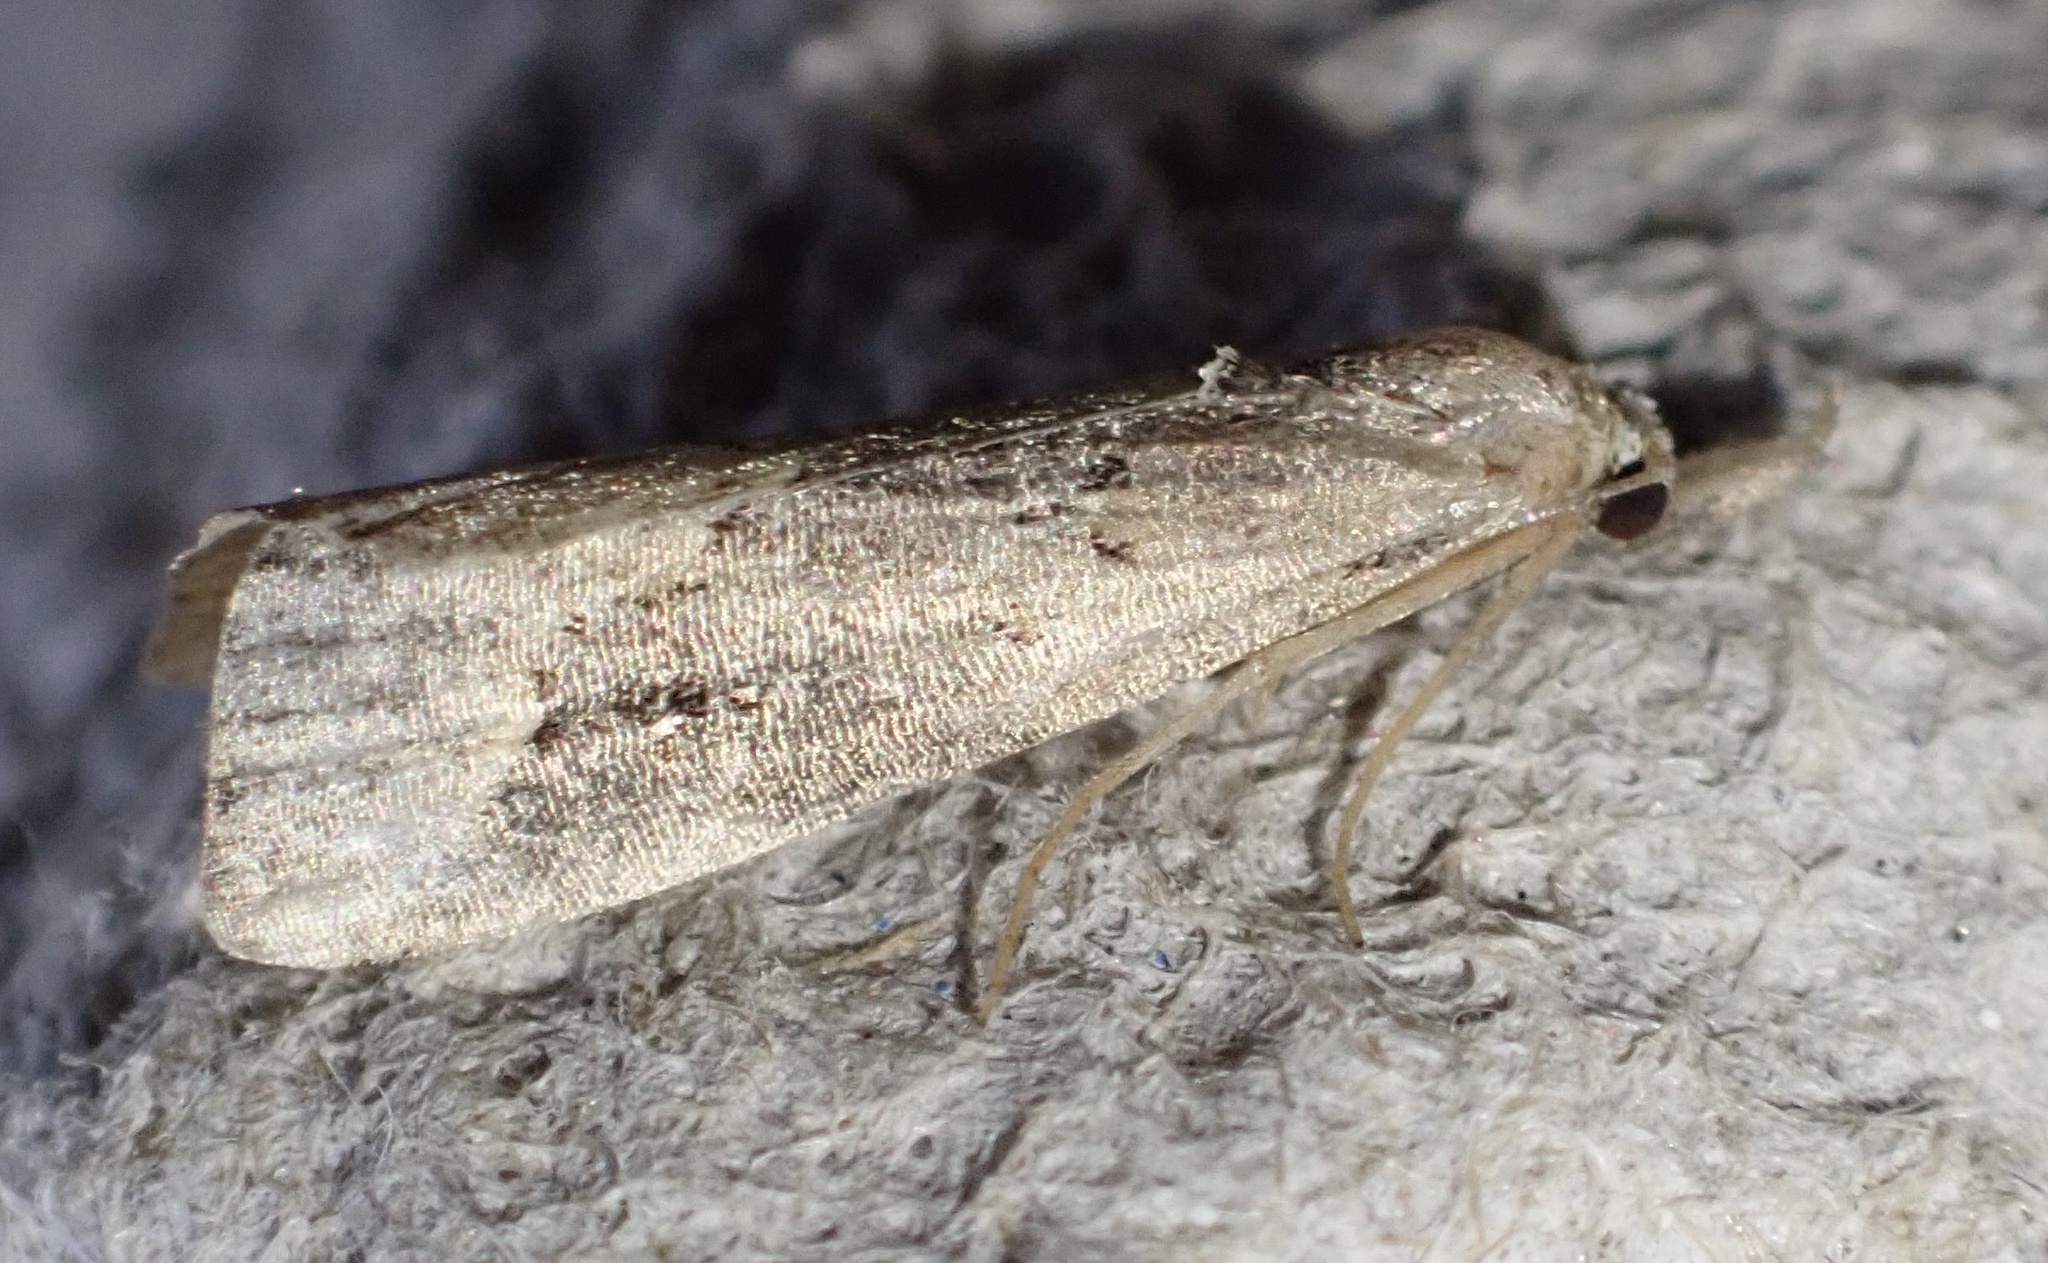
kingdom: Animalia
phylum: Arthropoda
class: Insecta
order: Lepidoptera
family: Erebidae
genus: Schrankia
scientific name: Schrankia costaestrigalis
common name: Pinion-streaked snout
